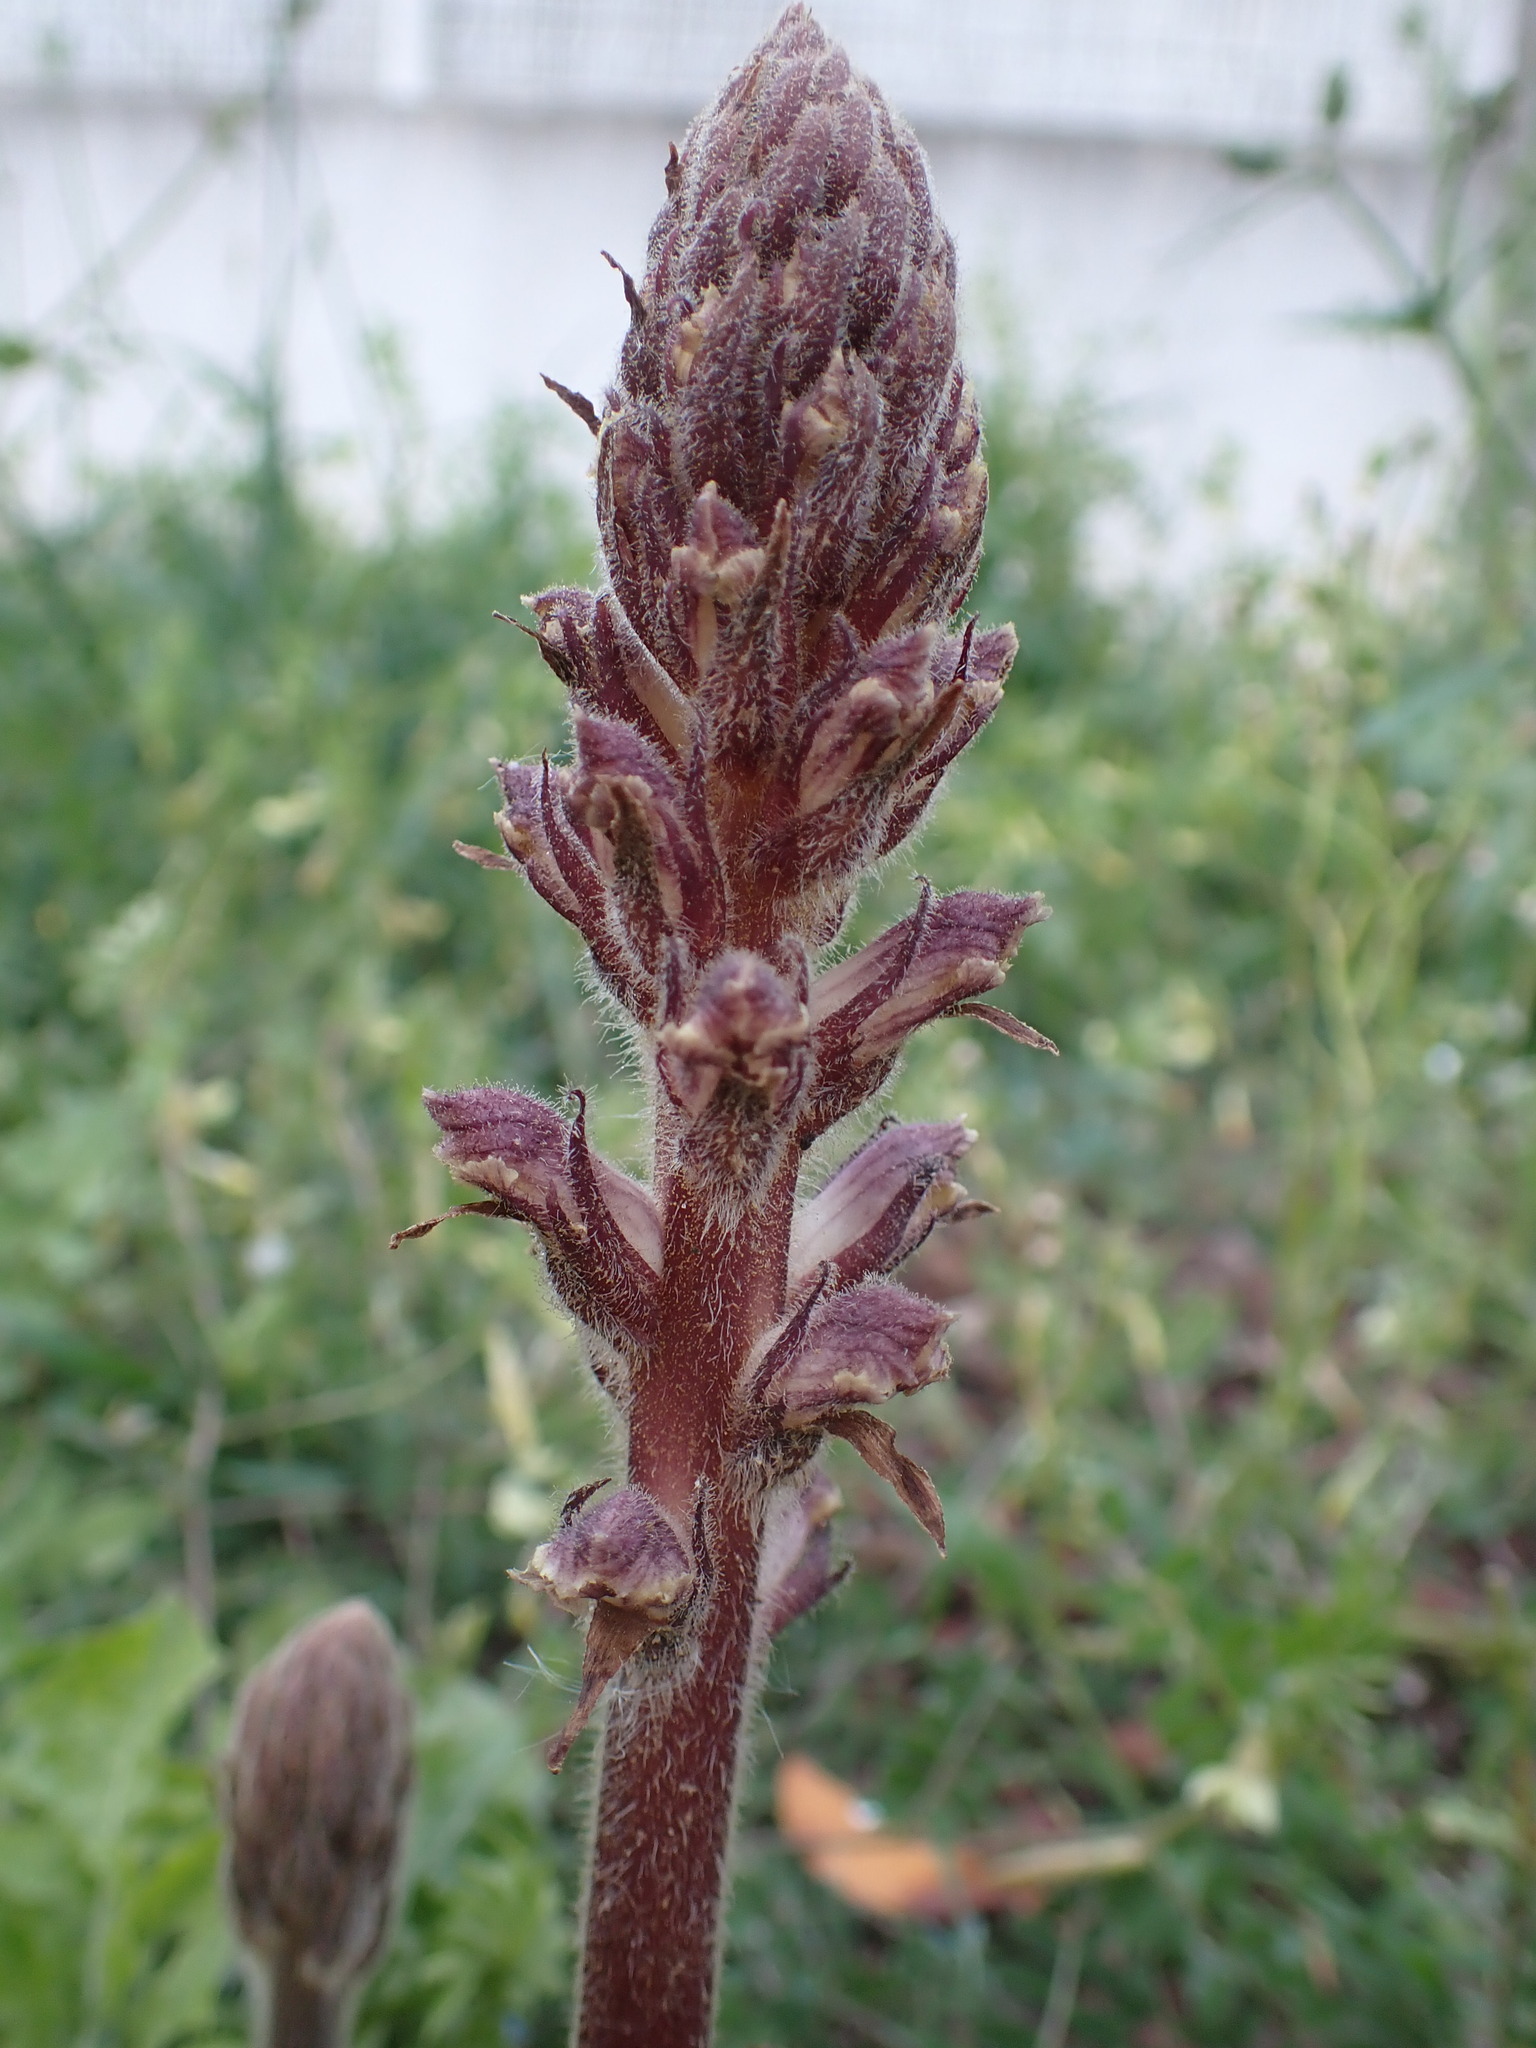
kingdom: Plantae
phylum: Tracheophyta
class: Magnoliopsida
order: Lamiales
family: Orobanchaceae
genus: Orobanche
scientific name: Orobanche minor
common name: Common broomrape
